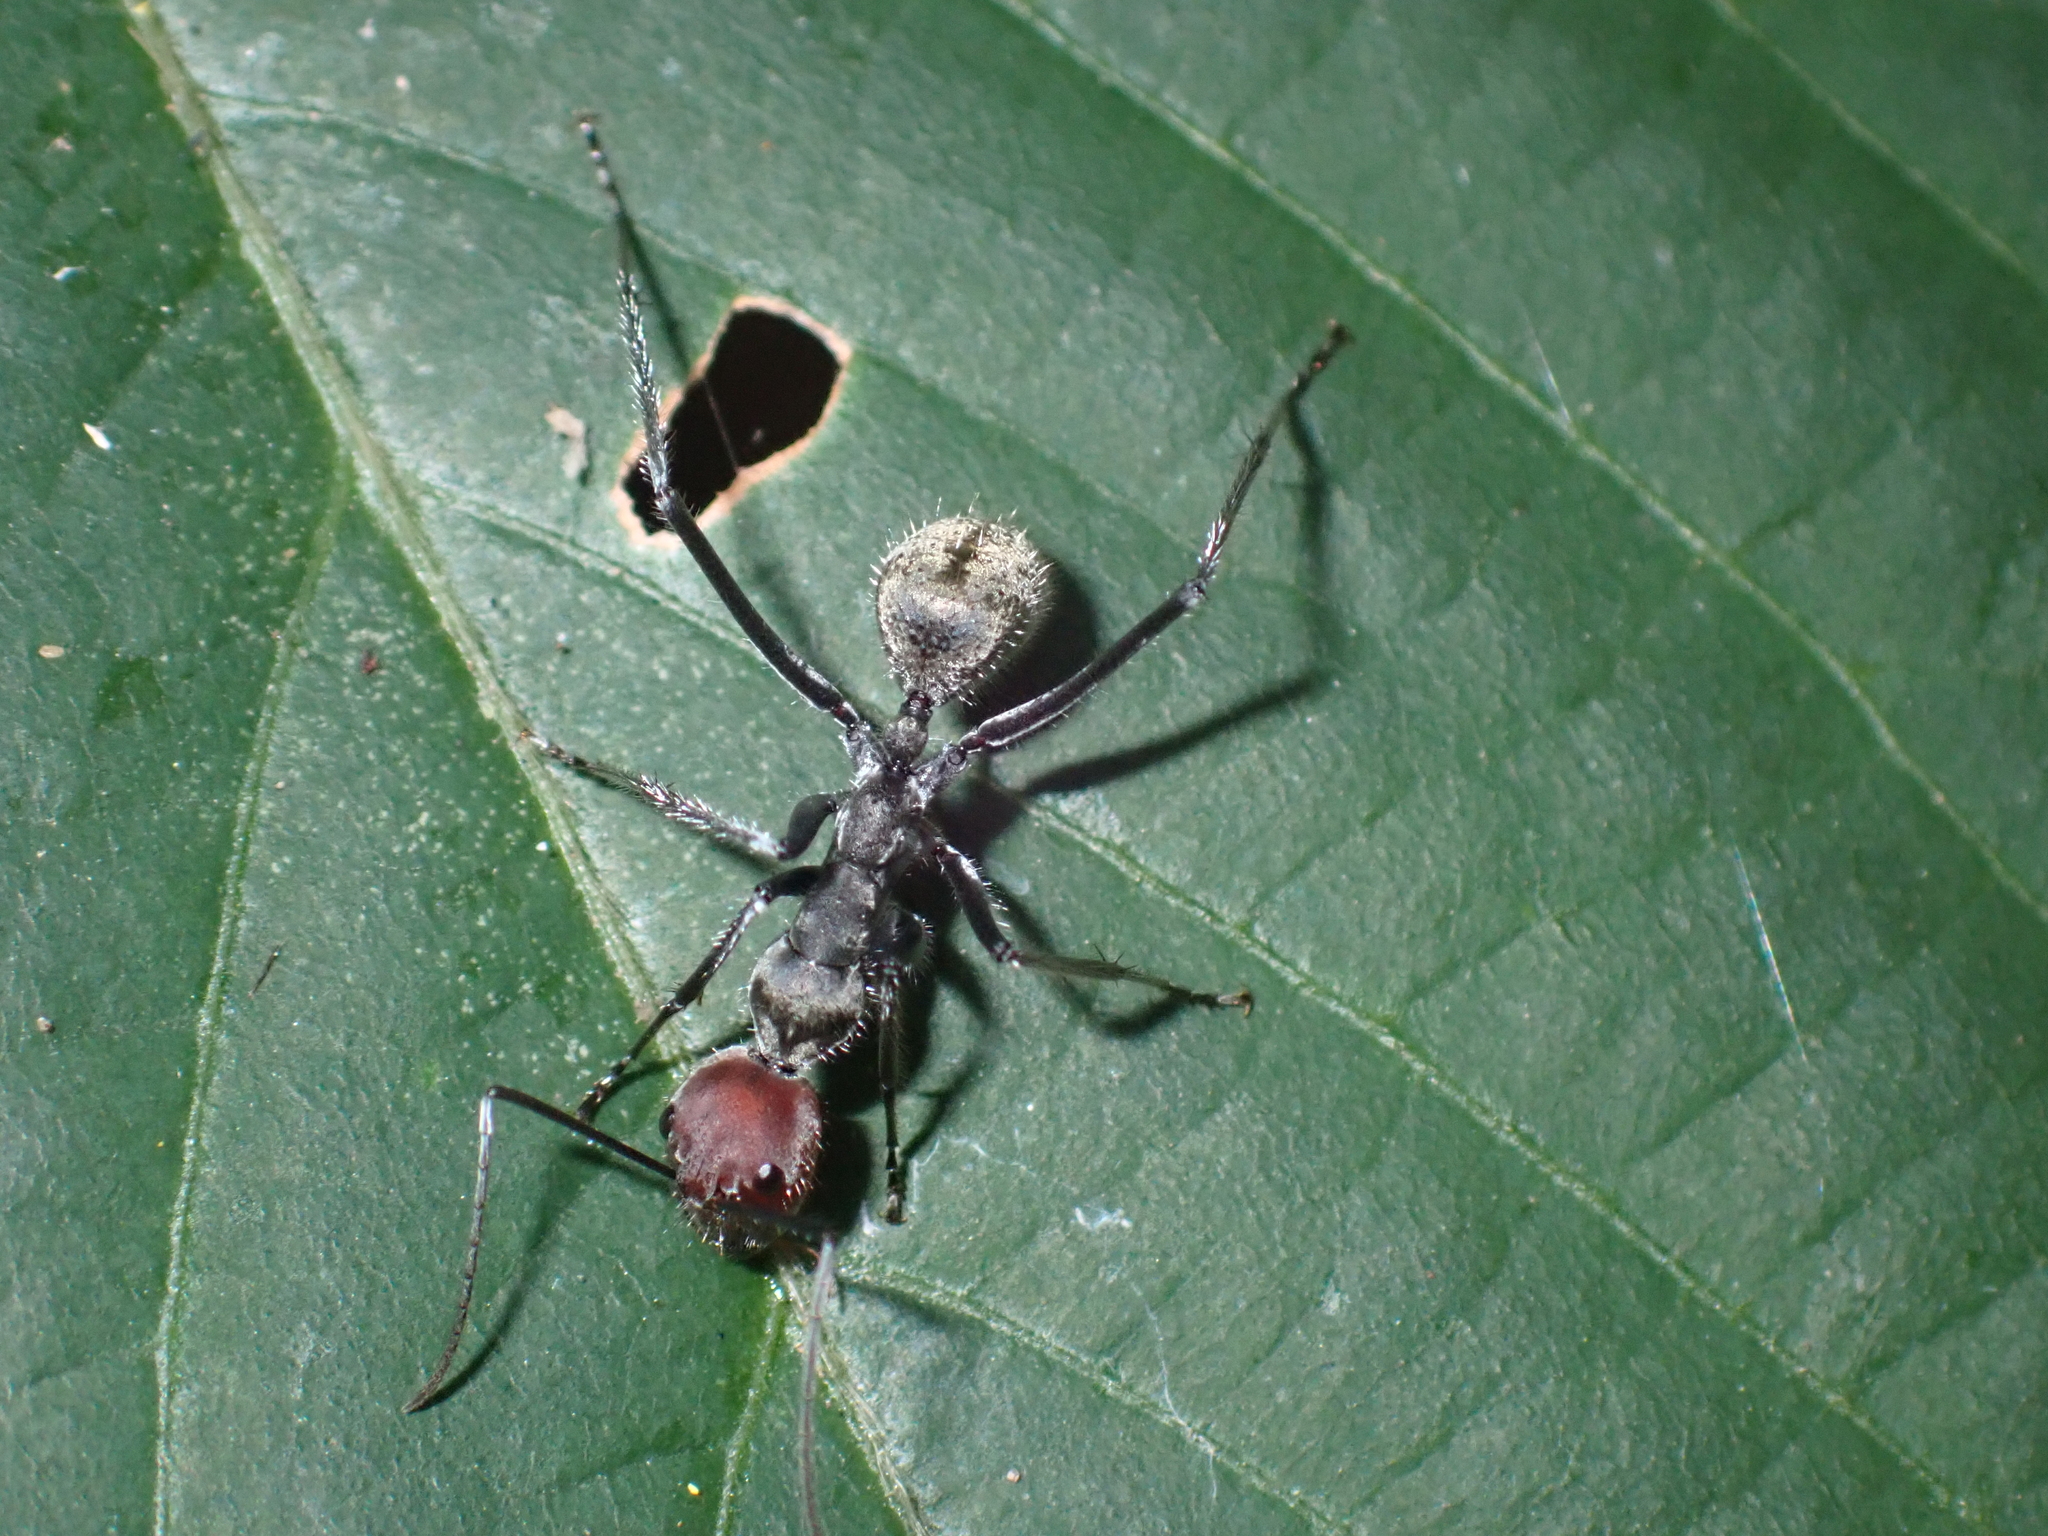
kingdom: Animalia
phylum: Arthropoda
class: Insecta
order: Hymenoptera
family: Formicidae
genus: Camponotus
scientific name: Camponotus singularis
